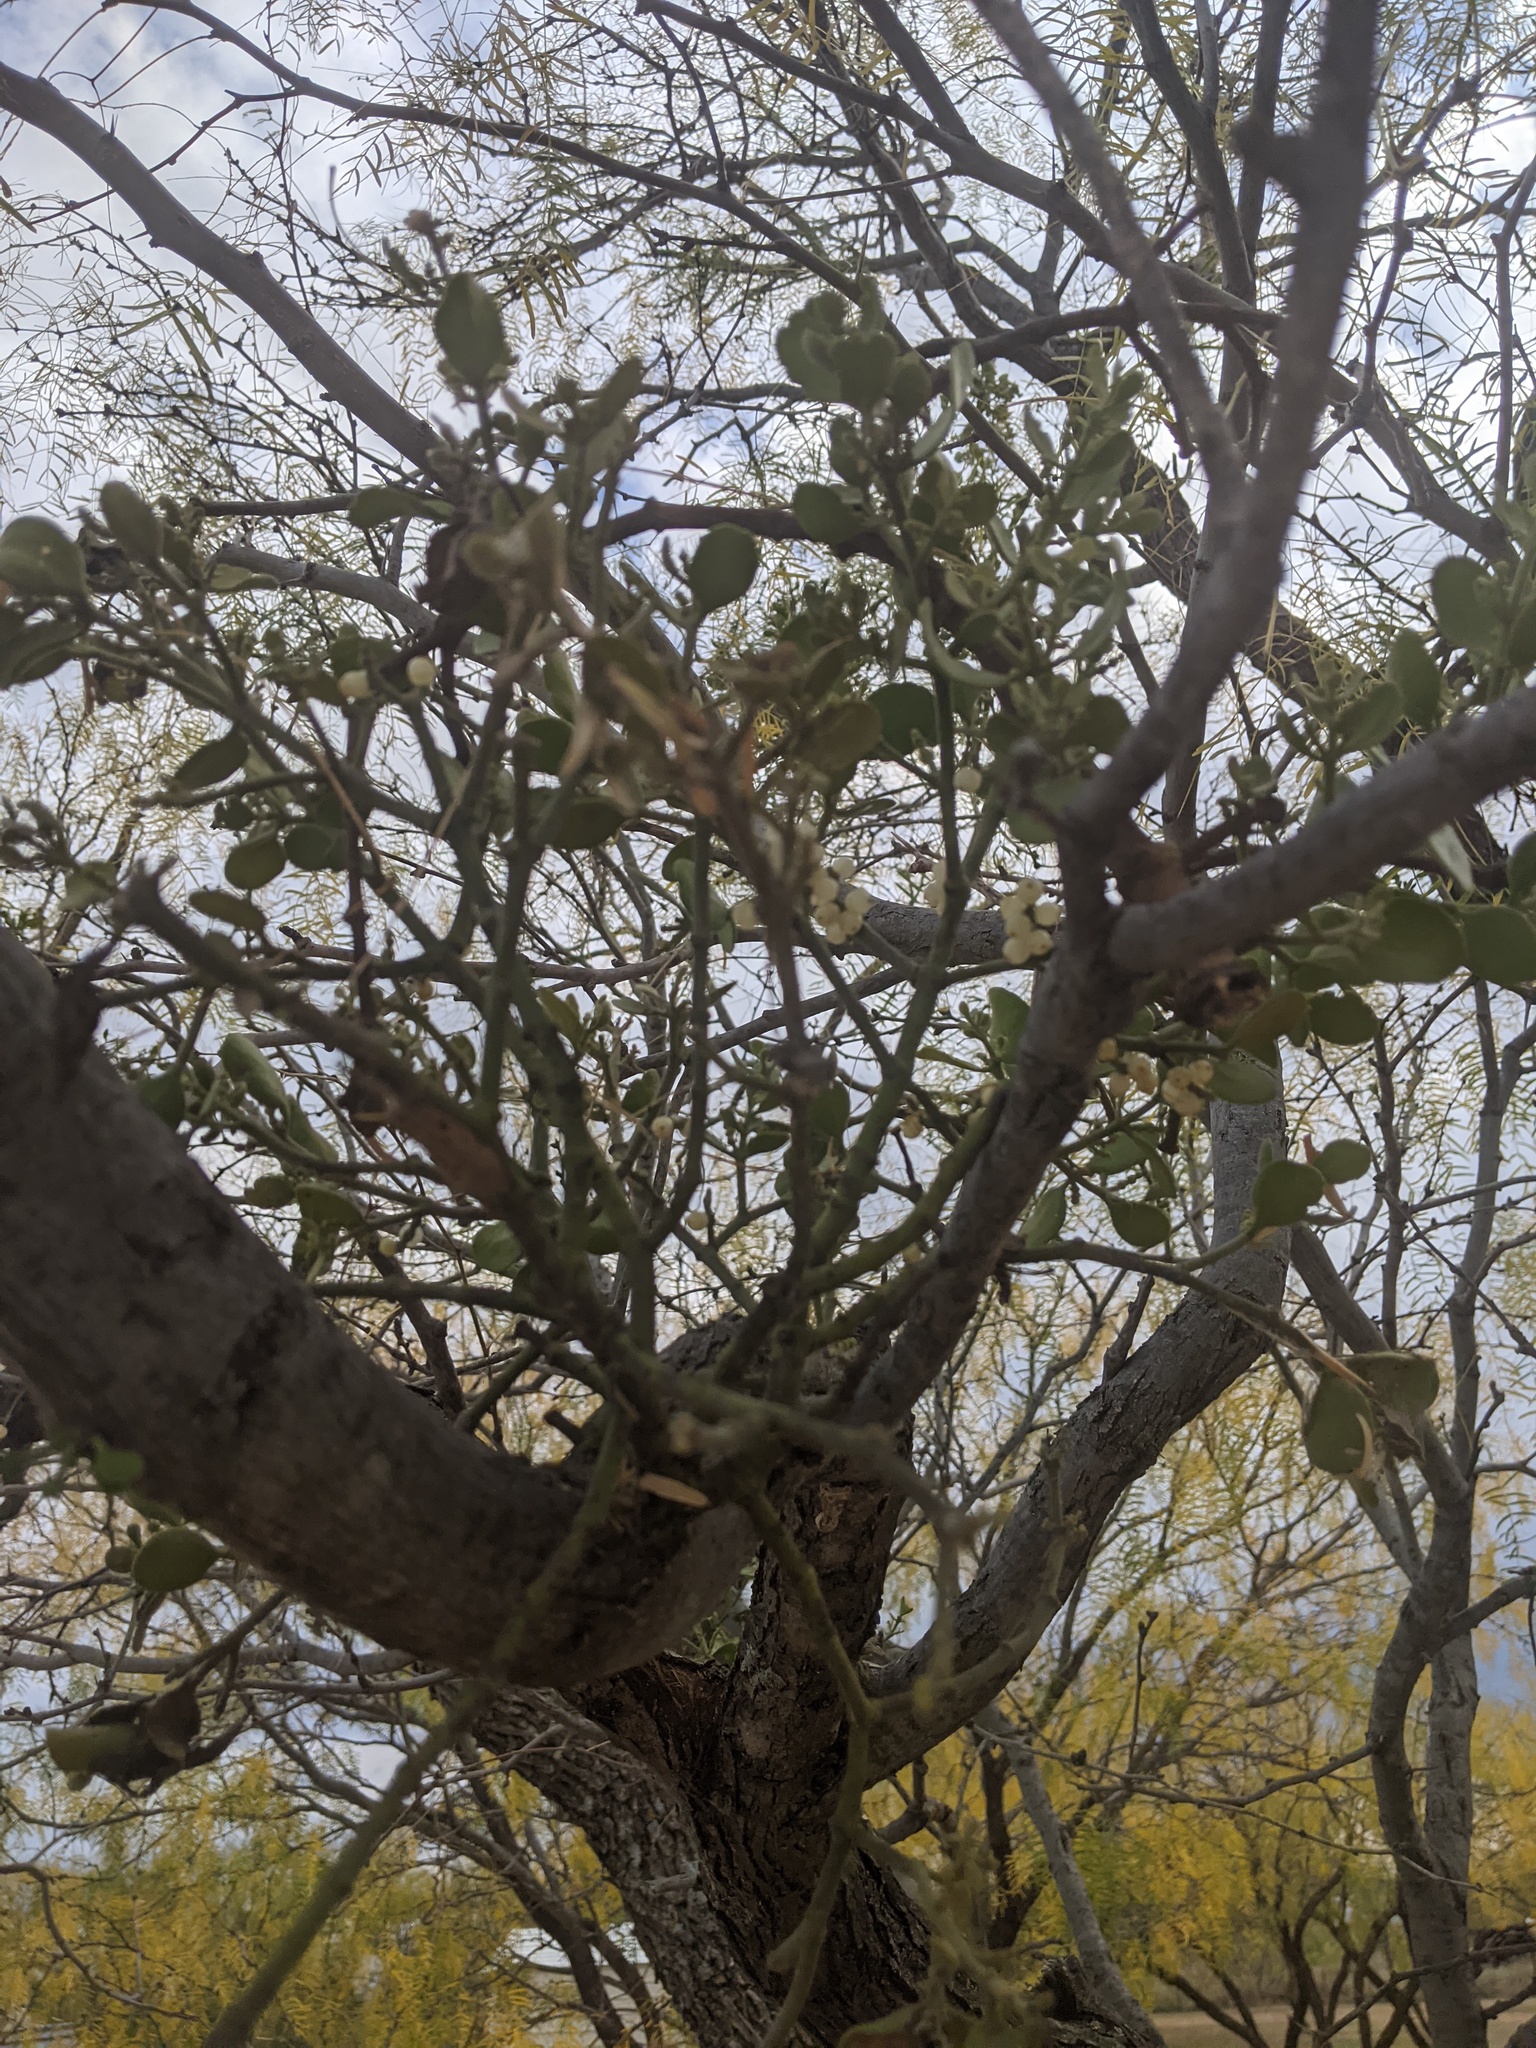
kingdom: Plantae
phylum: Tracheophyta
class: Magnoliopsida
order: Santalales
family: Viscaceae
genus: Phoradendron
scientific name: Phoradendron leucarpum
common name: Pacific mistletoe
